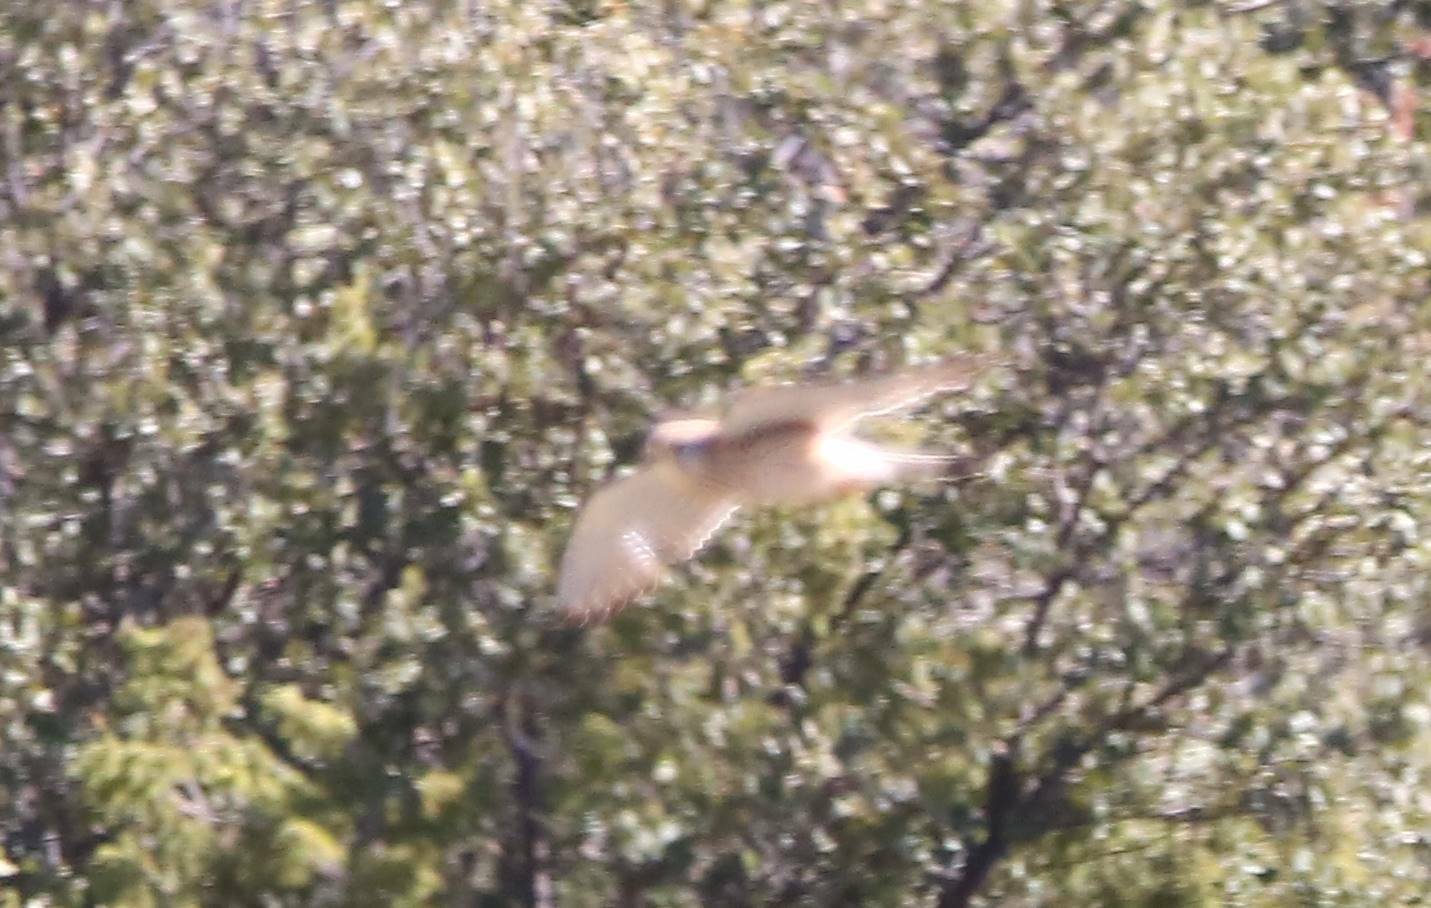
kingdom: Animalia
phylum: Chordata
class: Aves
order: Falconiformes
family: Falconidae
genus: Falco
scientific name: Falco tinnunculus
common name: Common kestrel
